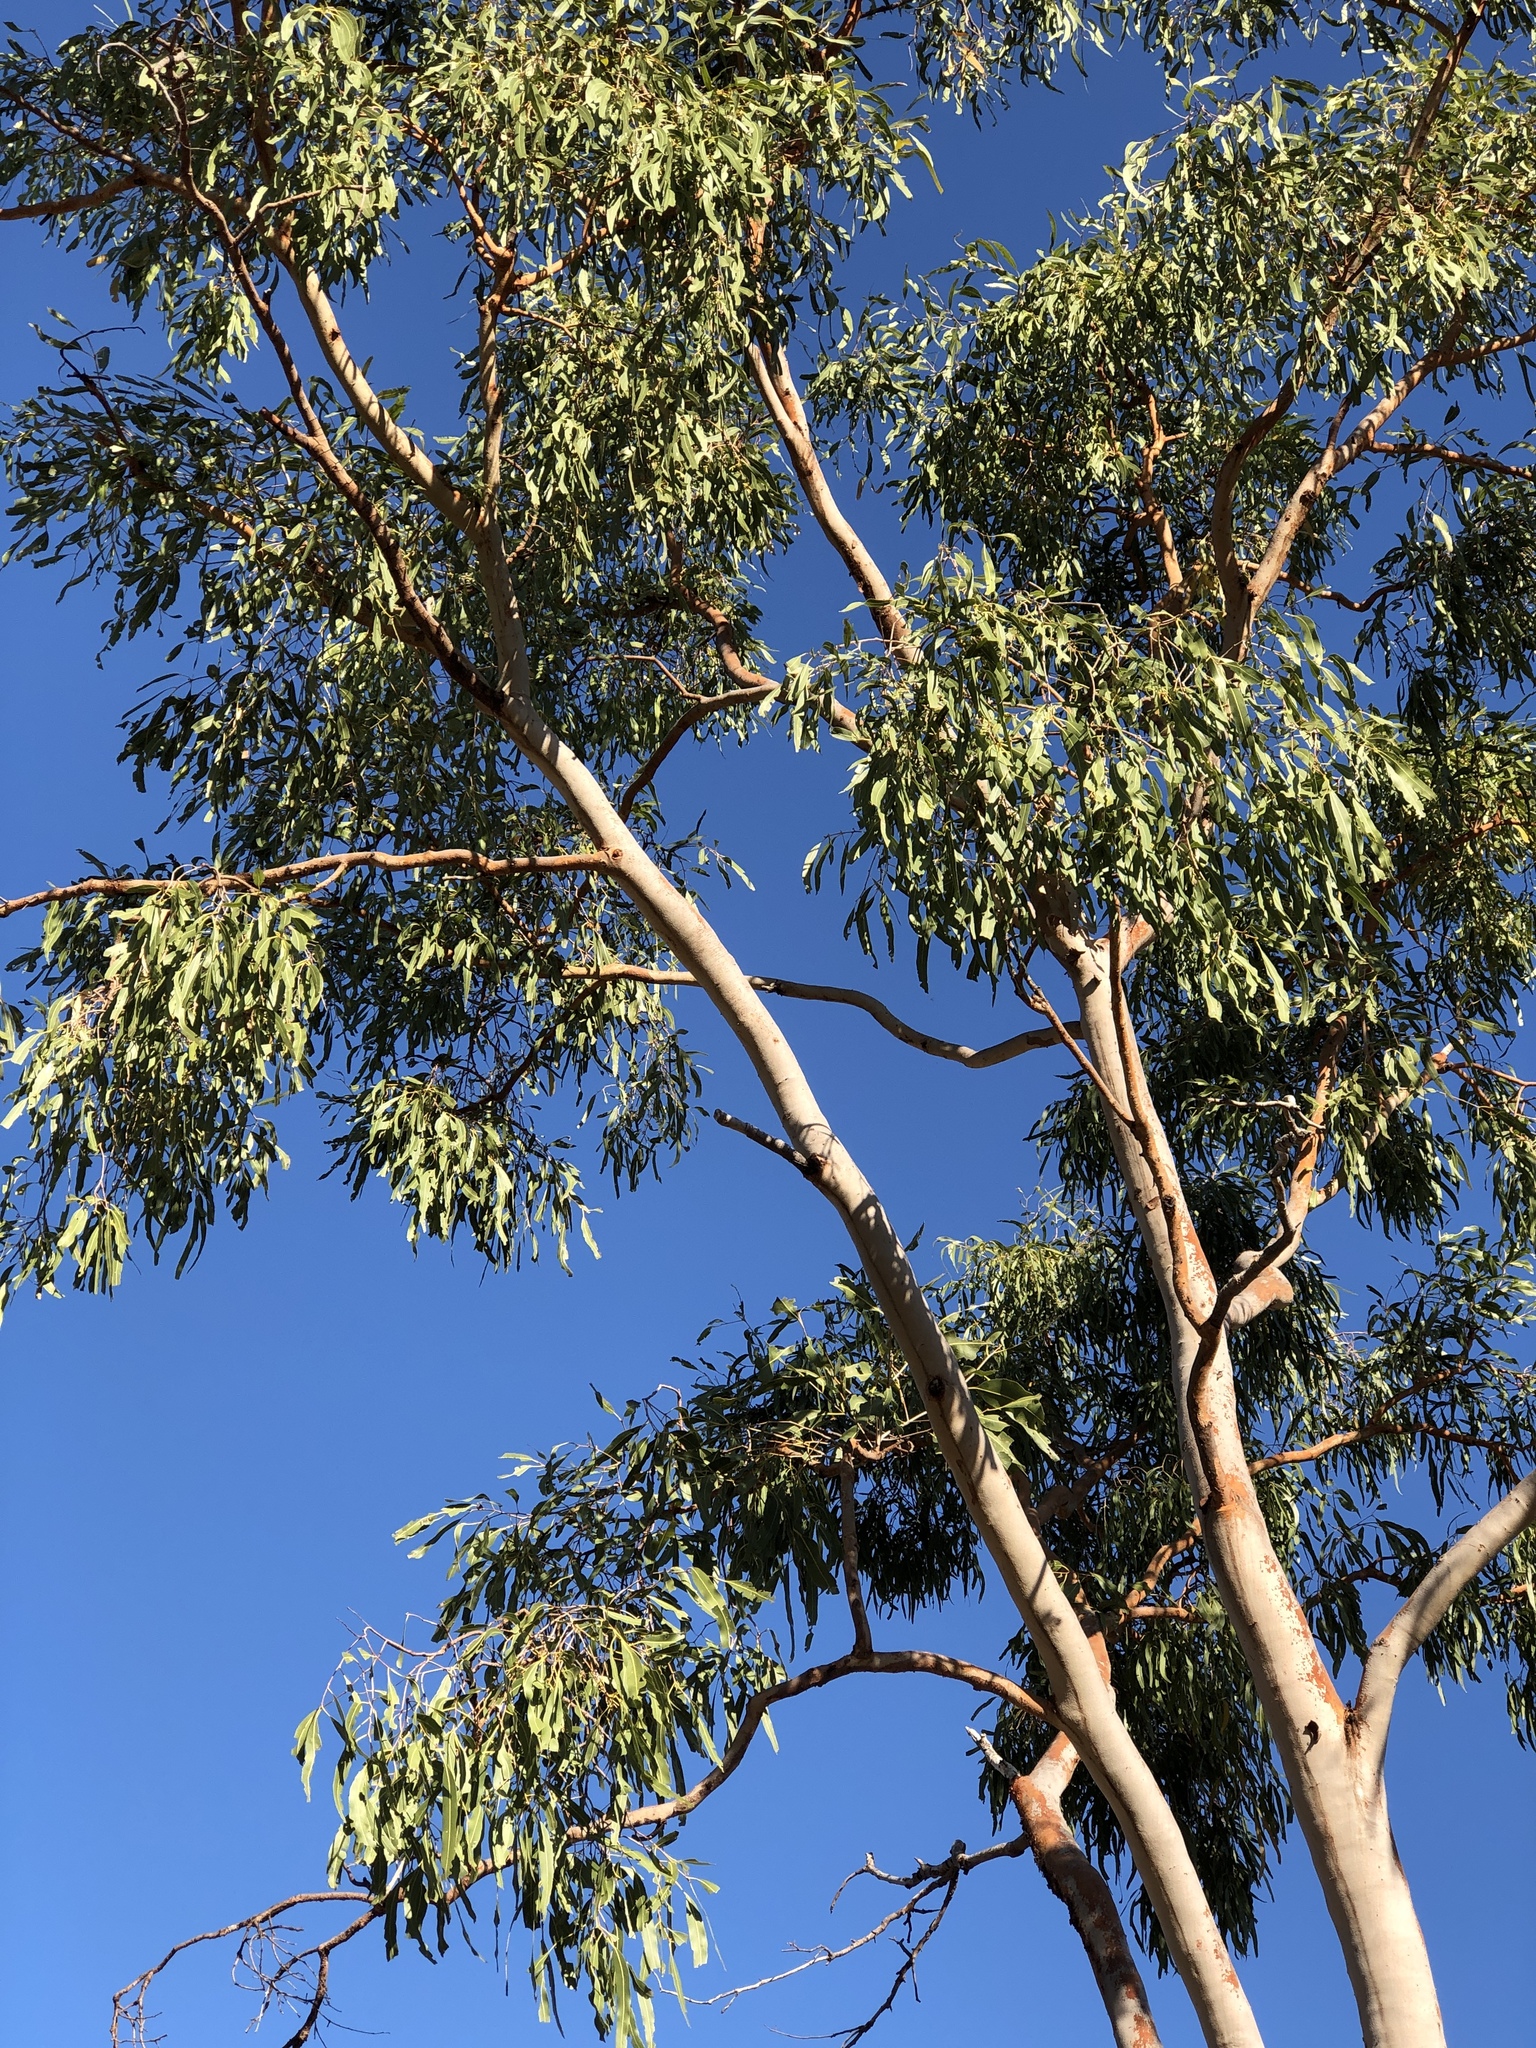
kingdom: Plantae
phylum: Tracheophyta
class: Magnoliopsida
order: Myrtales
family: Myrtaceae
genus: Corymbia
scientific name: Corymbia dallachiana
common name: Dallachy's gum
